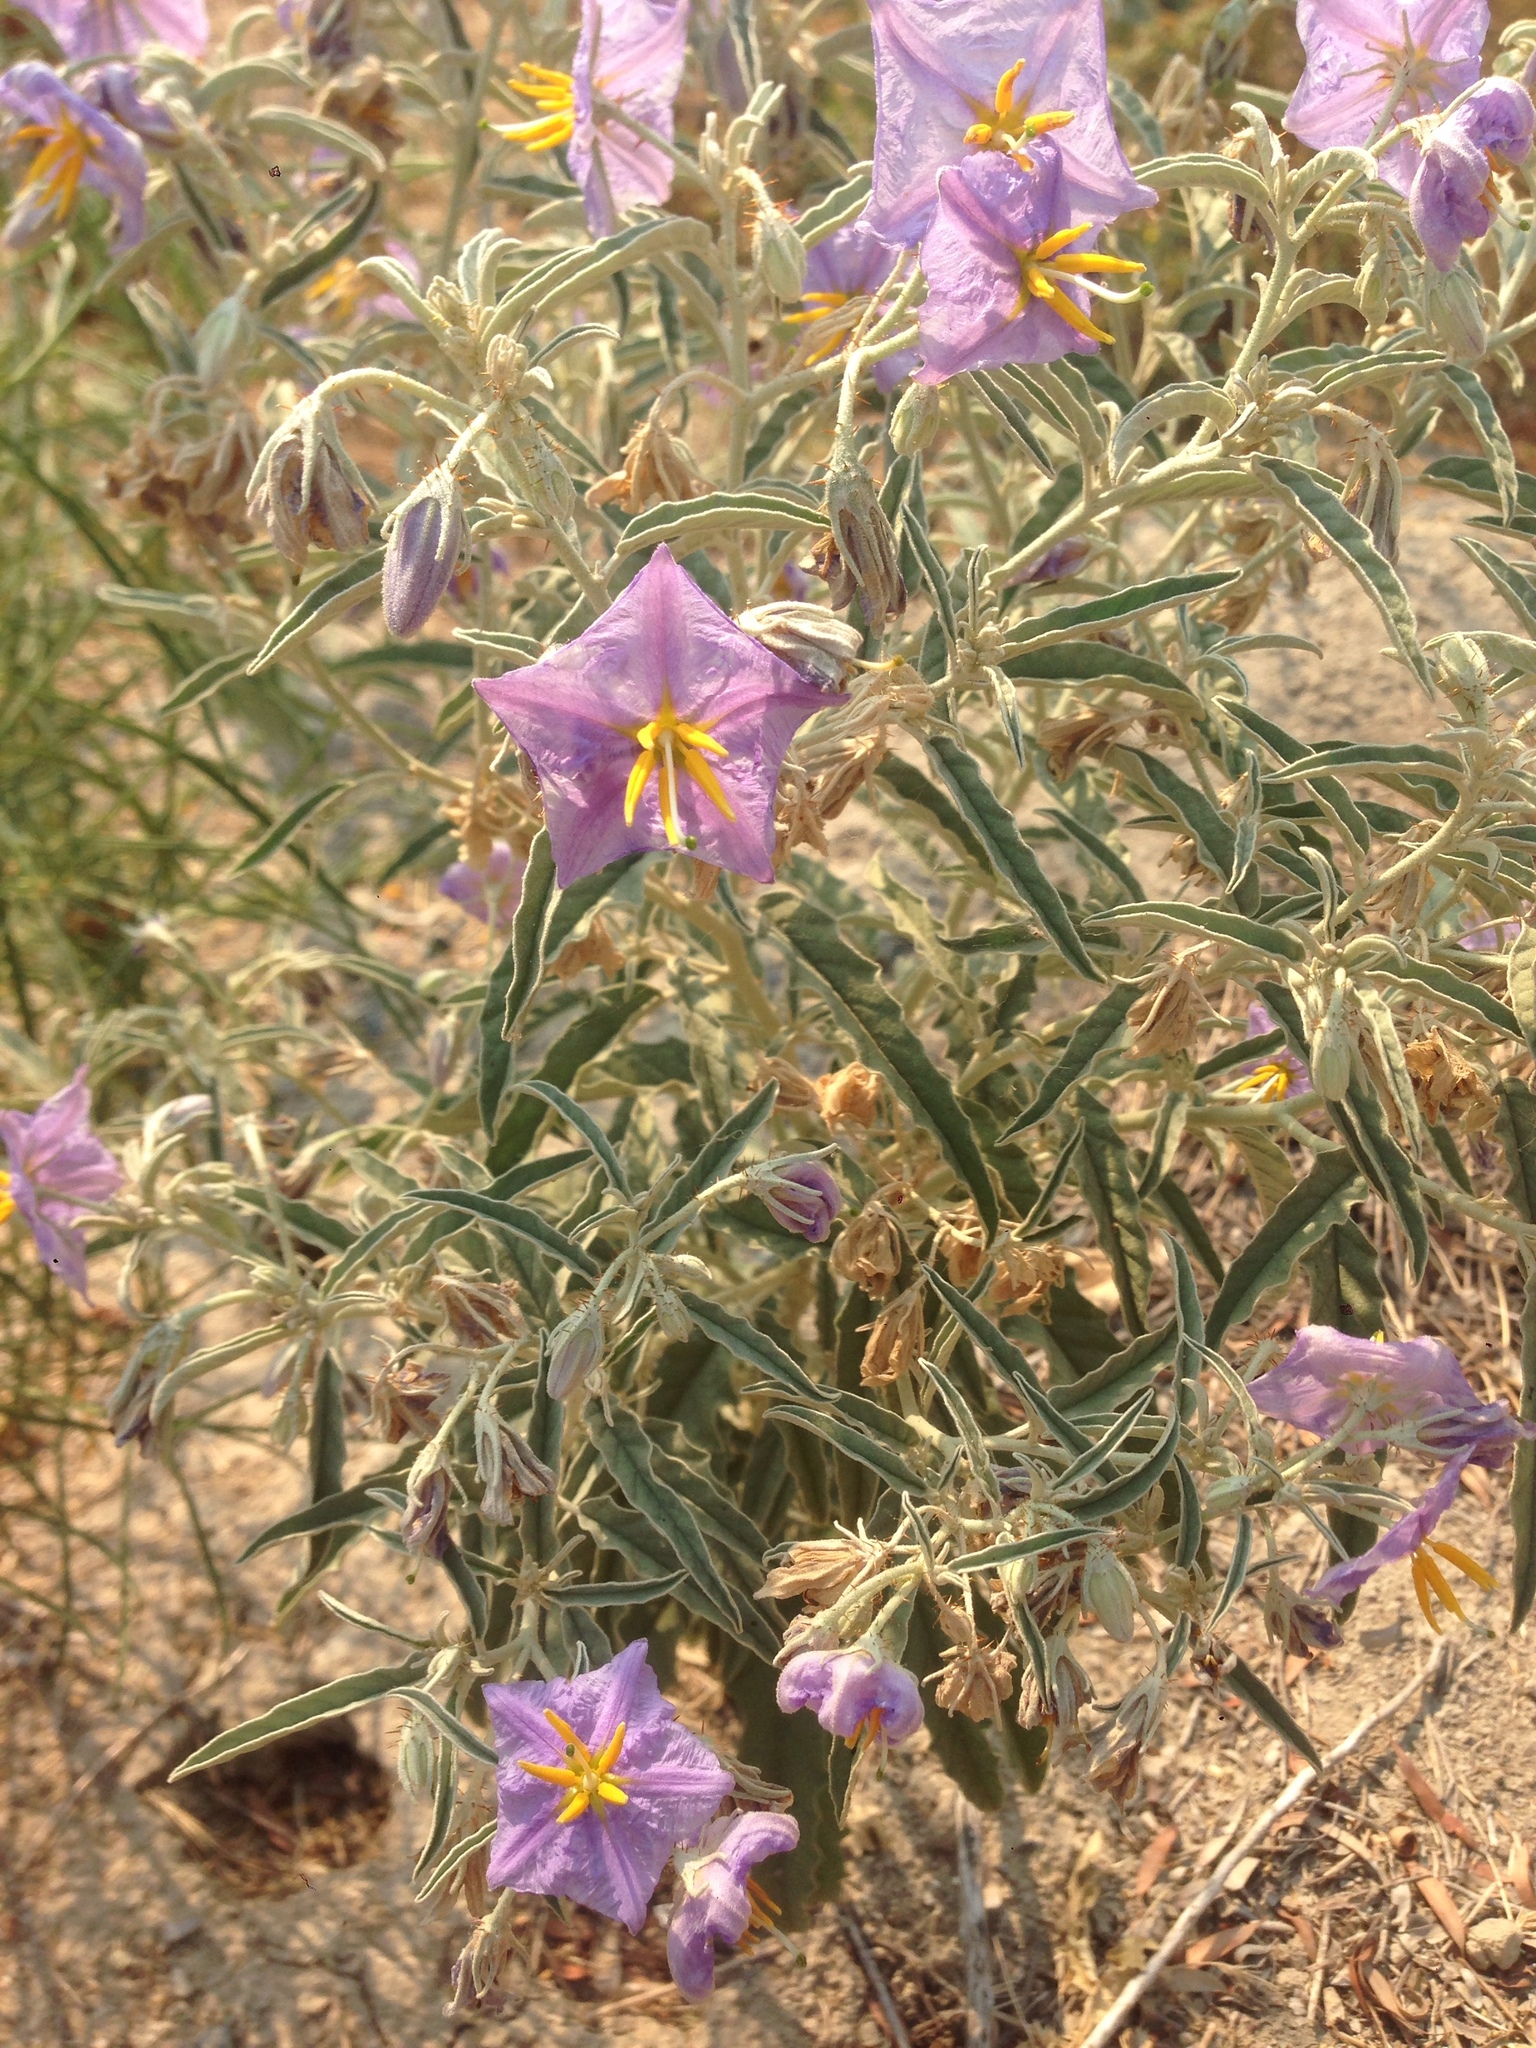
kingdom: Plantae
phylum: Tracheophyta
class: Magnoliopsida
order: Solanales
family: Solanaceae
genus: Solanum
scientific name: Solanum elaeagnifolium
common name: Silverleaf nightshade
